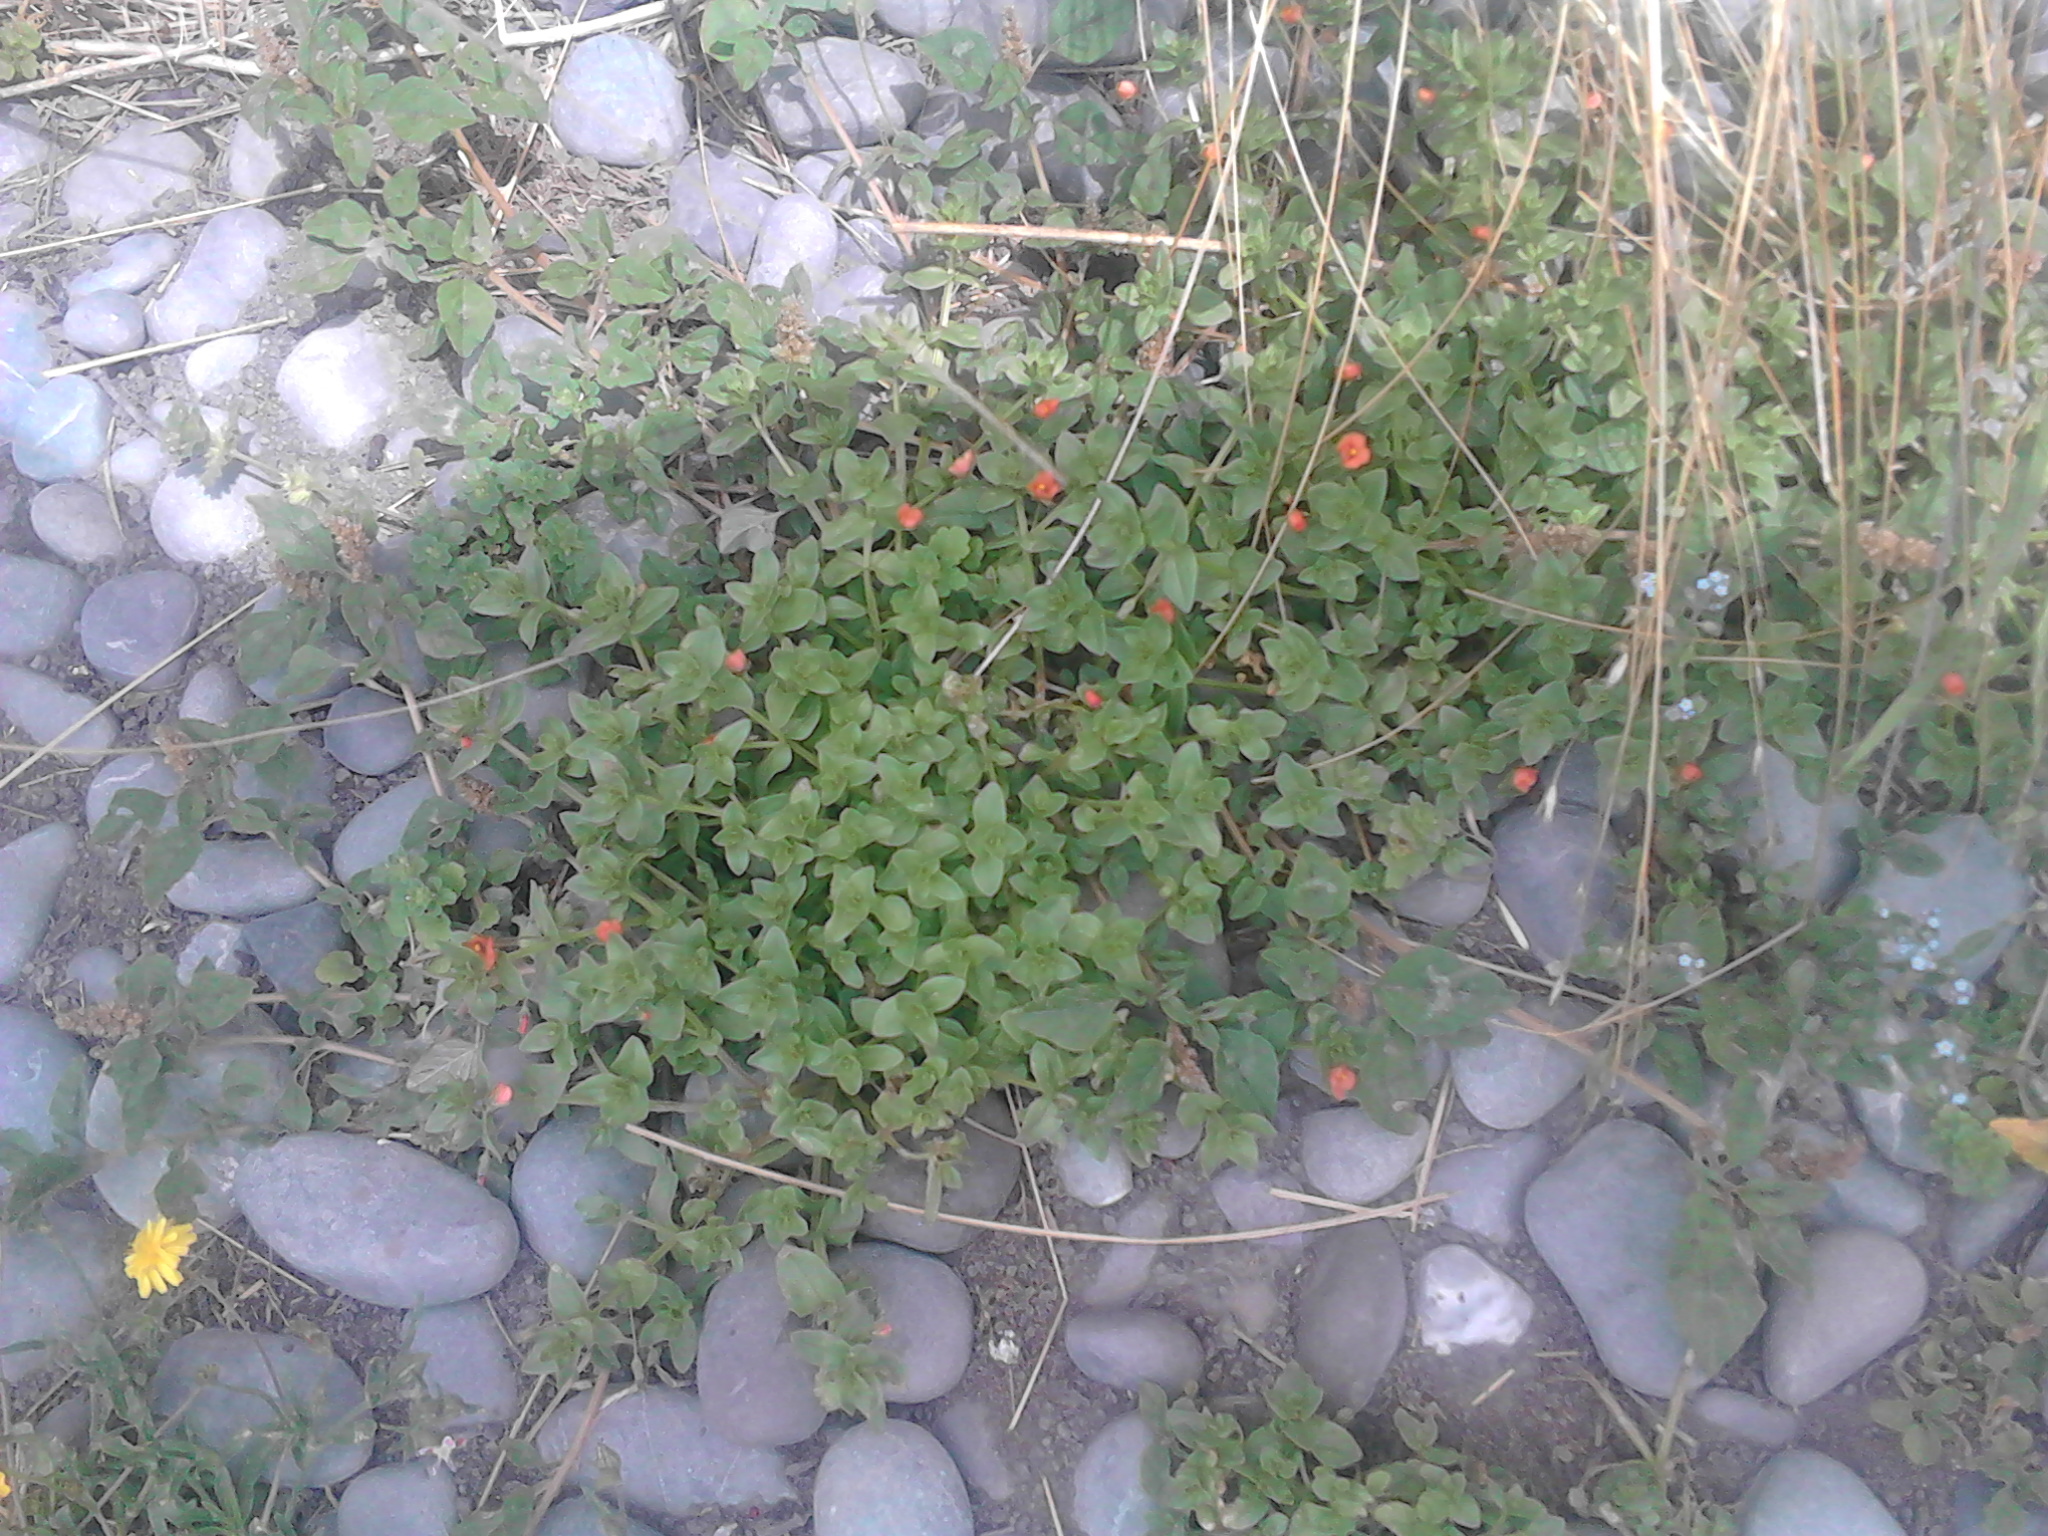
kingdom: Plantae
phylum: Tracheophyta
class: Magnoliopsida
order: Ericales
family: Primulaceae
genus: Lysimachia
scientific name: Lysimachia arvensis
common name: Scarlet pimpernel
